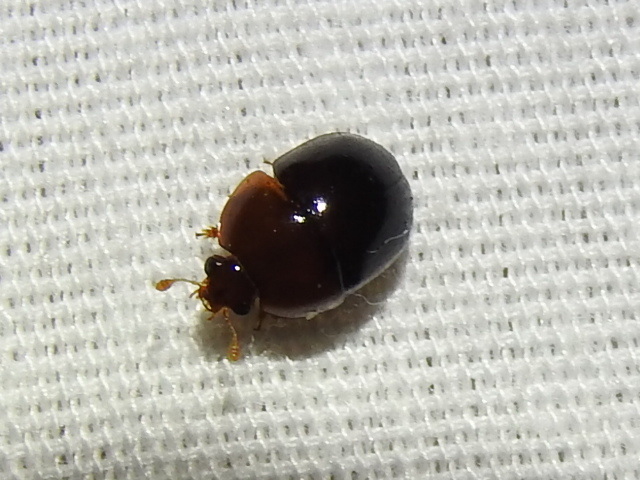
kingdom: Animalia
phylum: Arthropoda
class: Insecta
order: Coleoptera
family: Nitidulidae
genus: Camptodes
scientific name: Camptodes texanus
